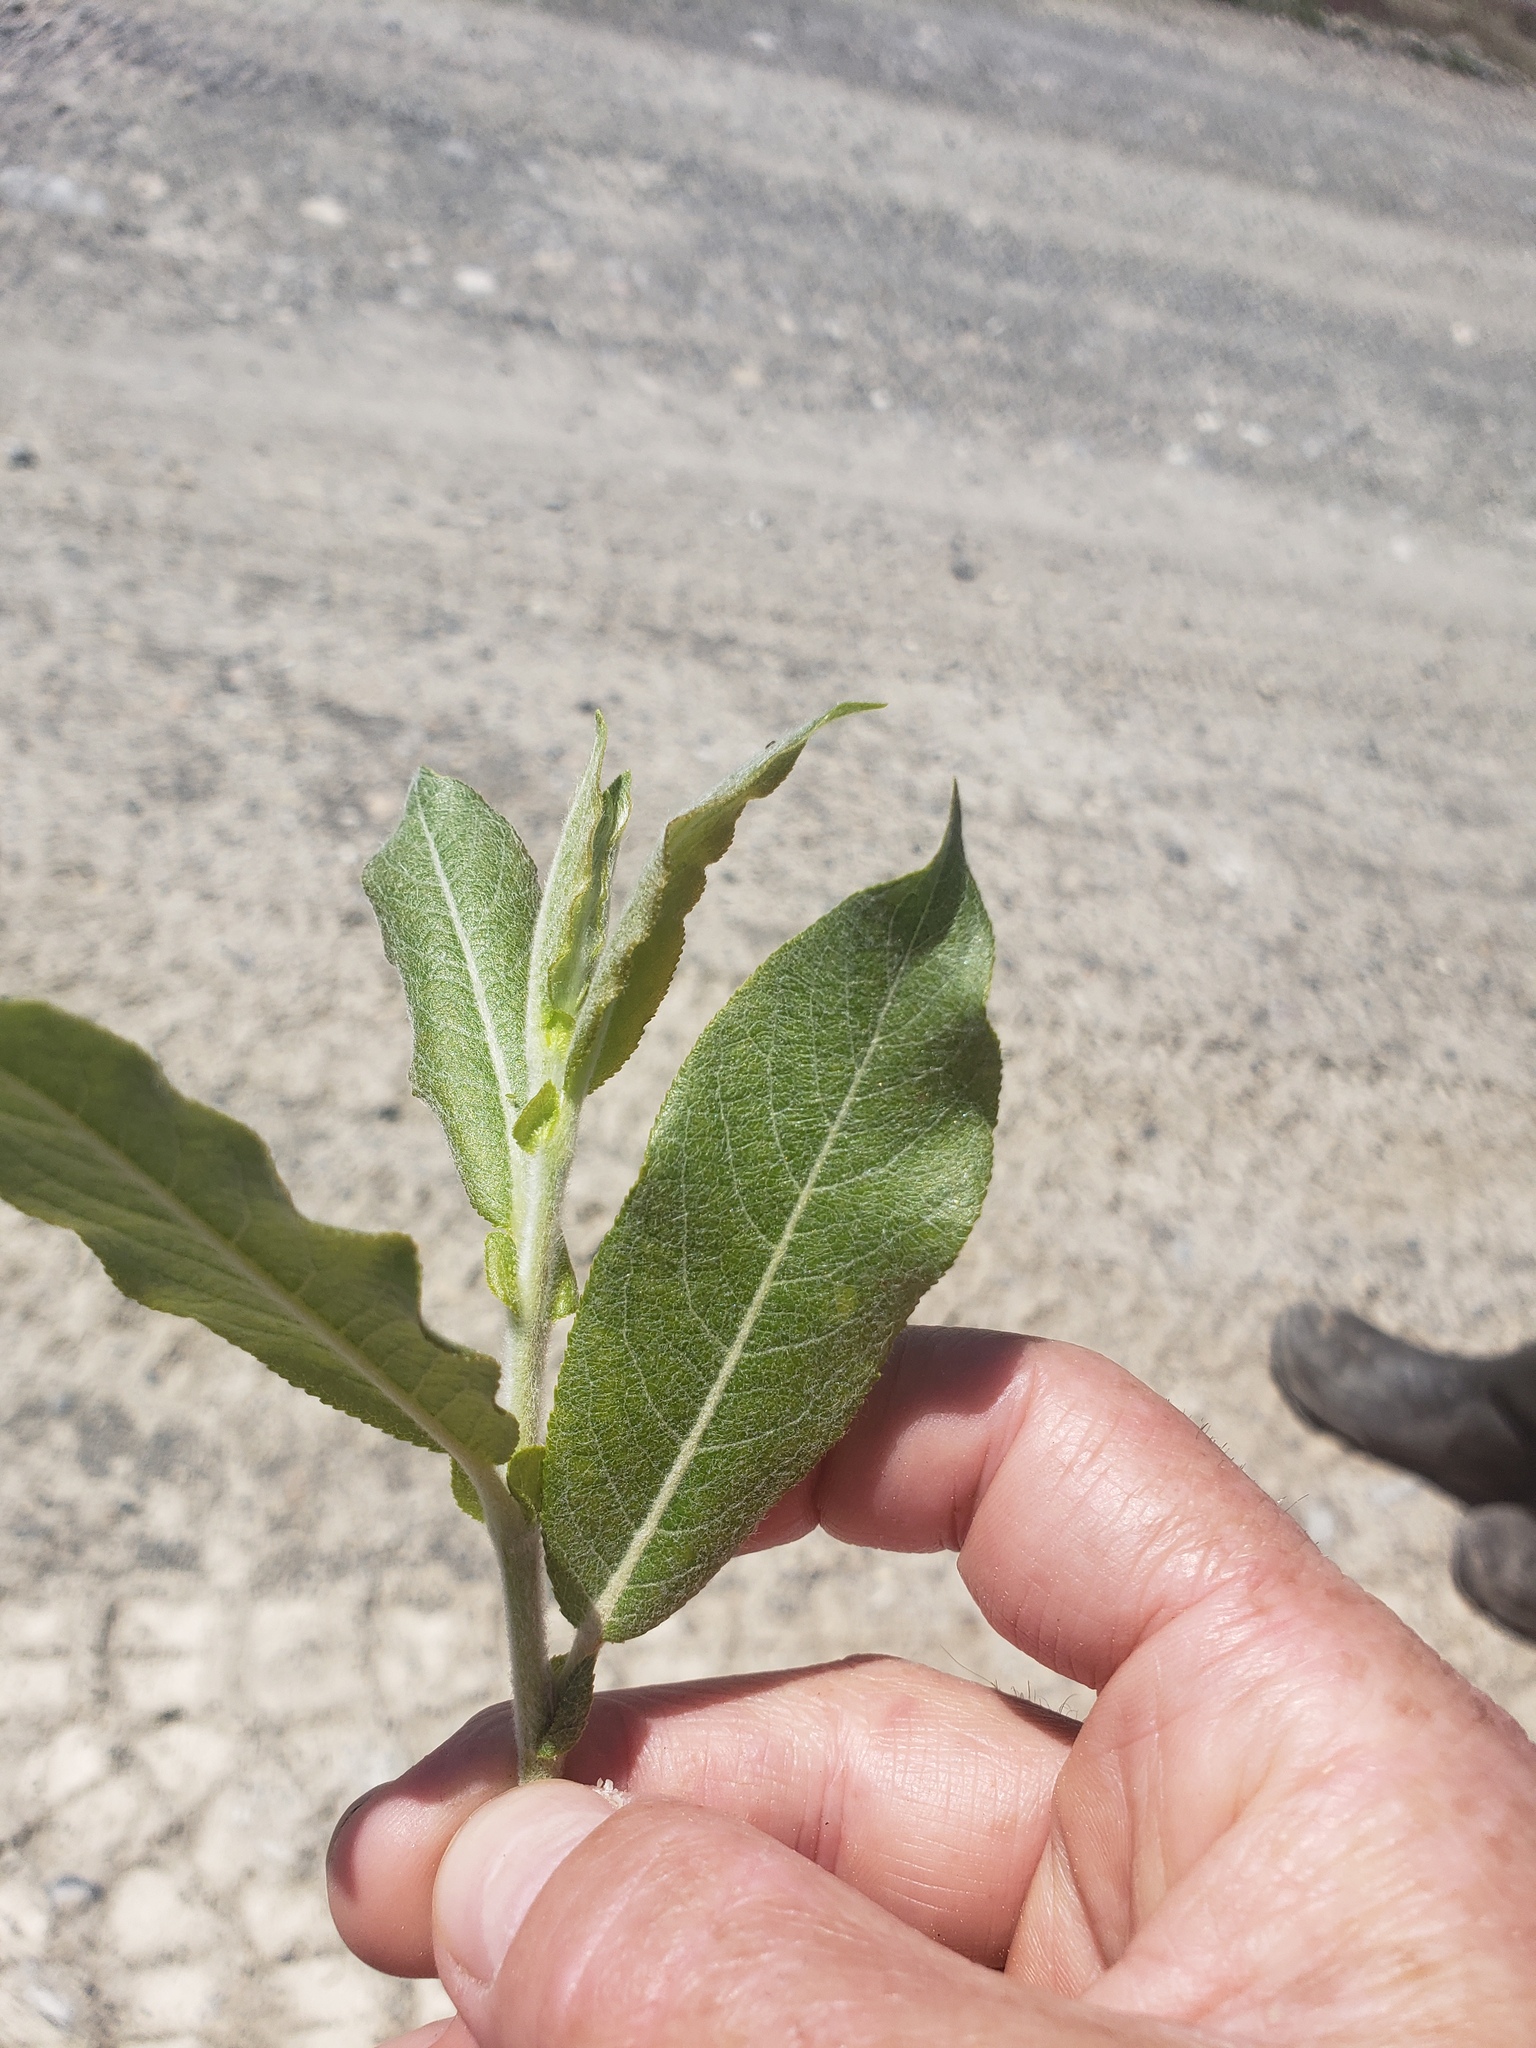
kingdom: Plantae
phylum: Tracheophyta
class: Magnoliopsida
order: Malpighiales
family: Salicaceae
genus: Salix
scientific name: Salix commutata
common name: Under-green willow
